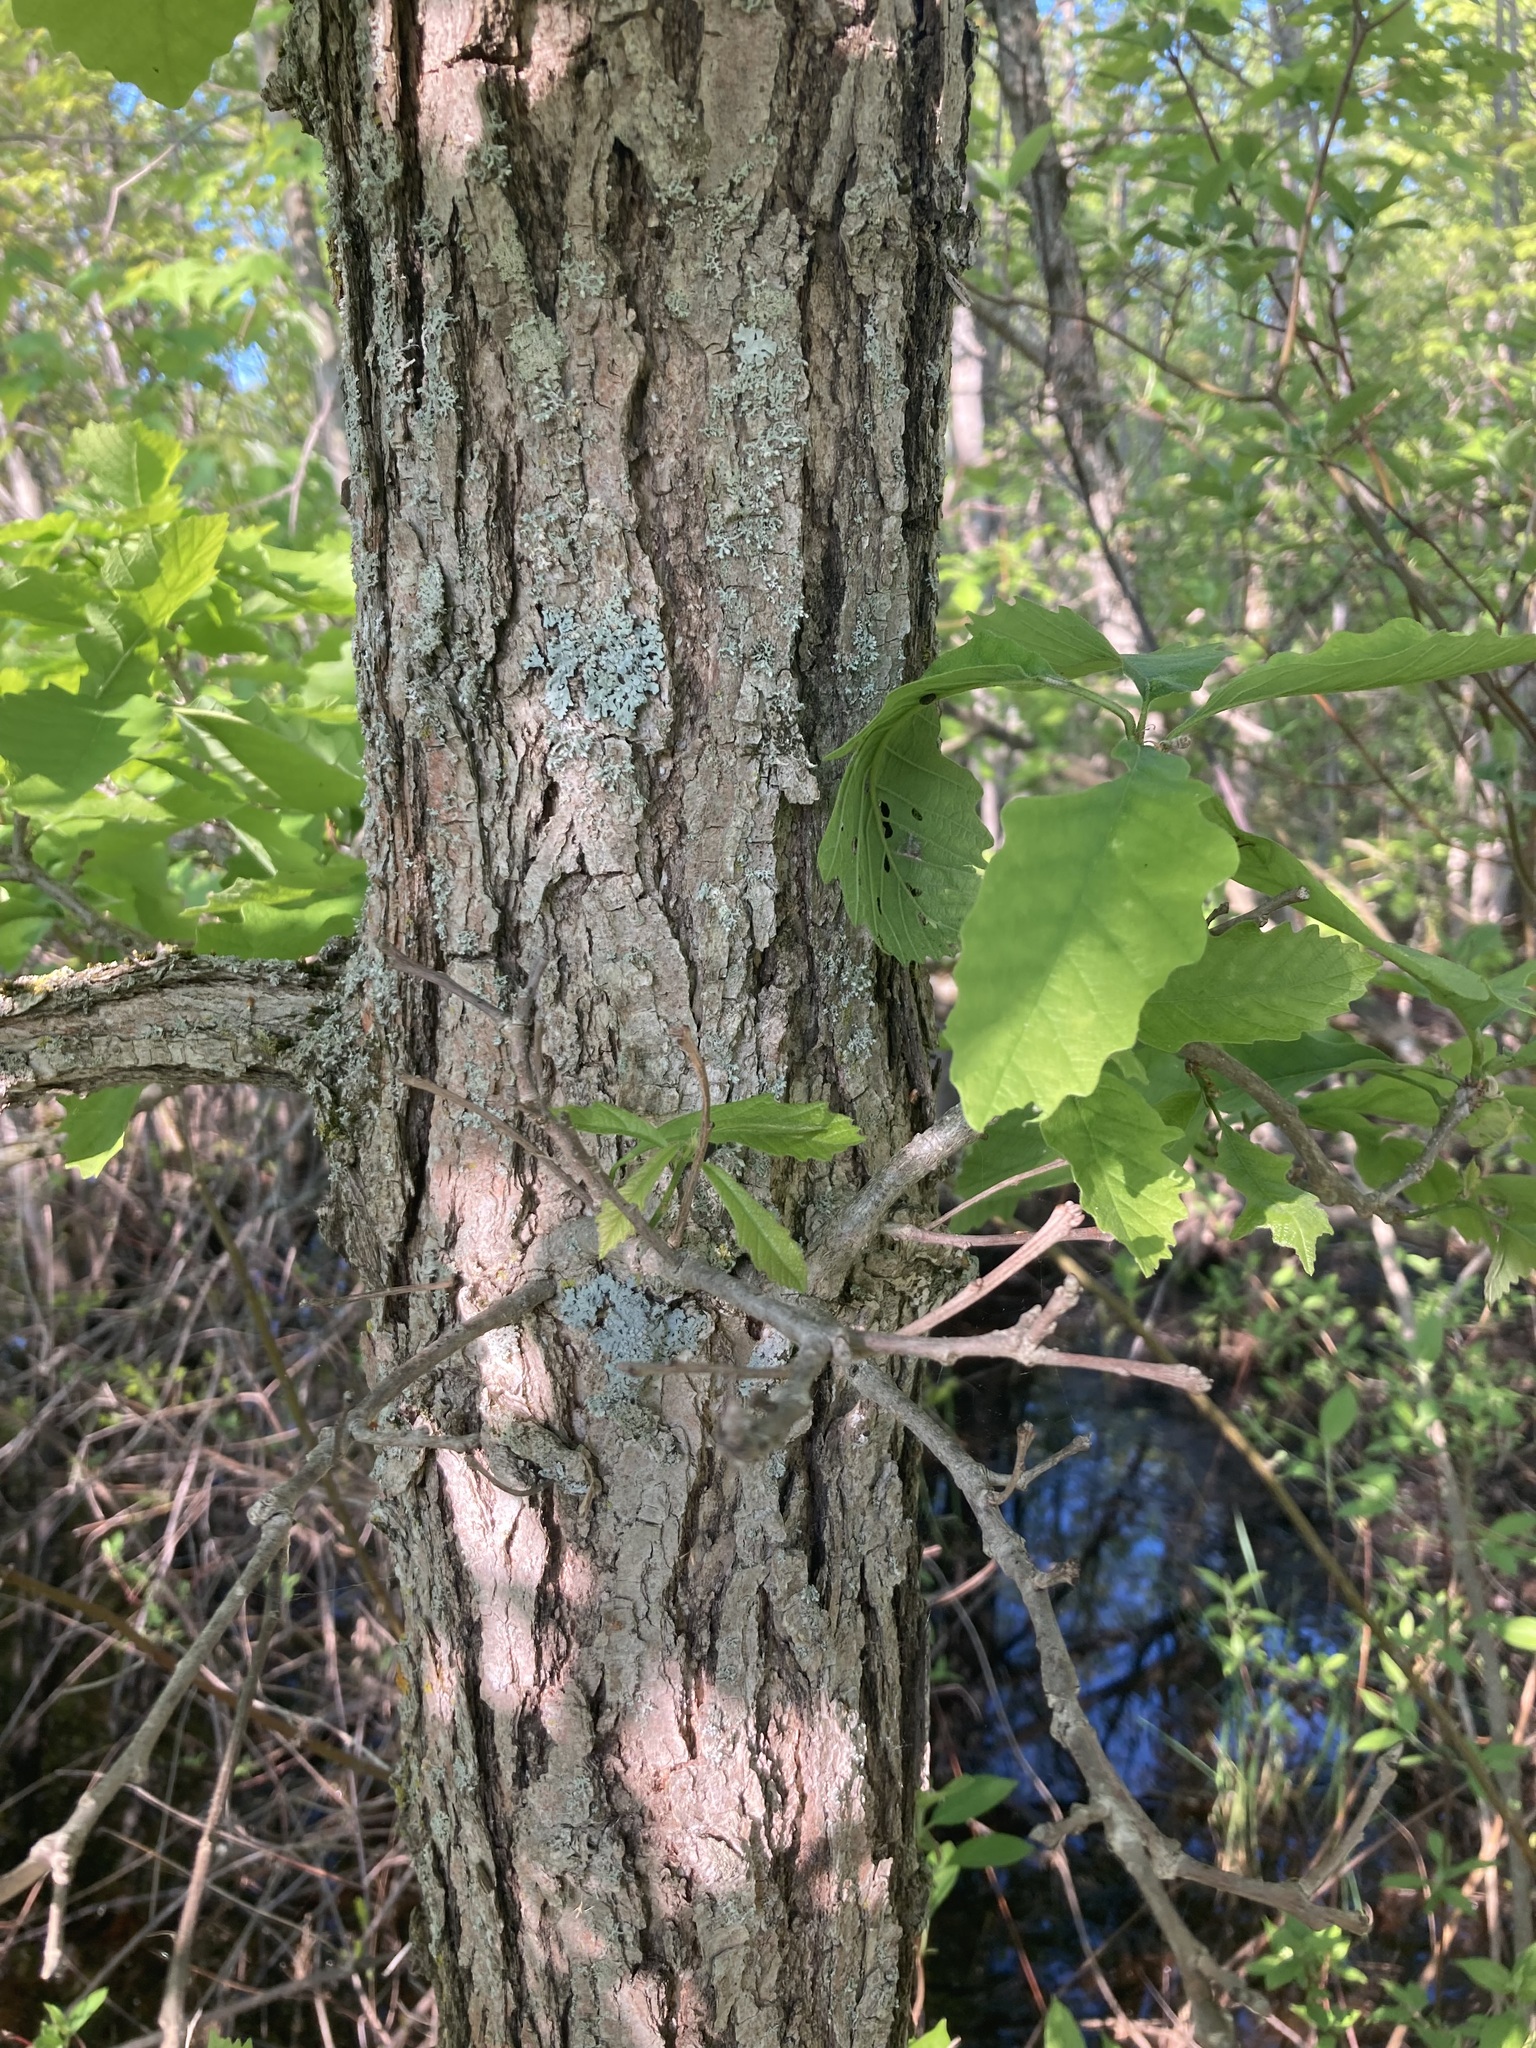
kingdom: Plantae
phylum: Tracheophyta
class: Magnoliopsida
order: Fagales
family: Fagaceae
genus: Quercus
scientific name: Quercus macrocarpa
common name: Bur oak
